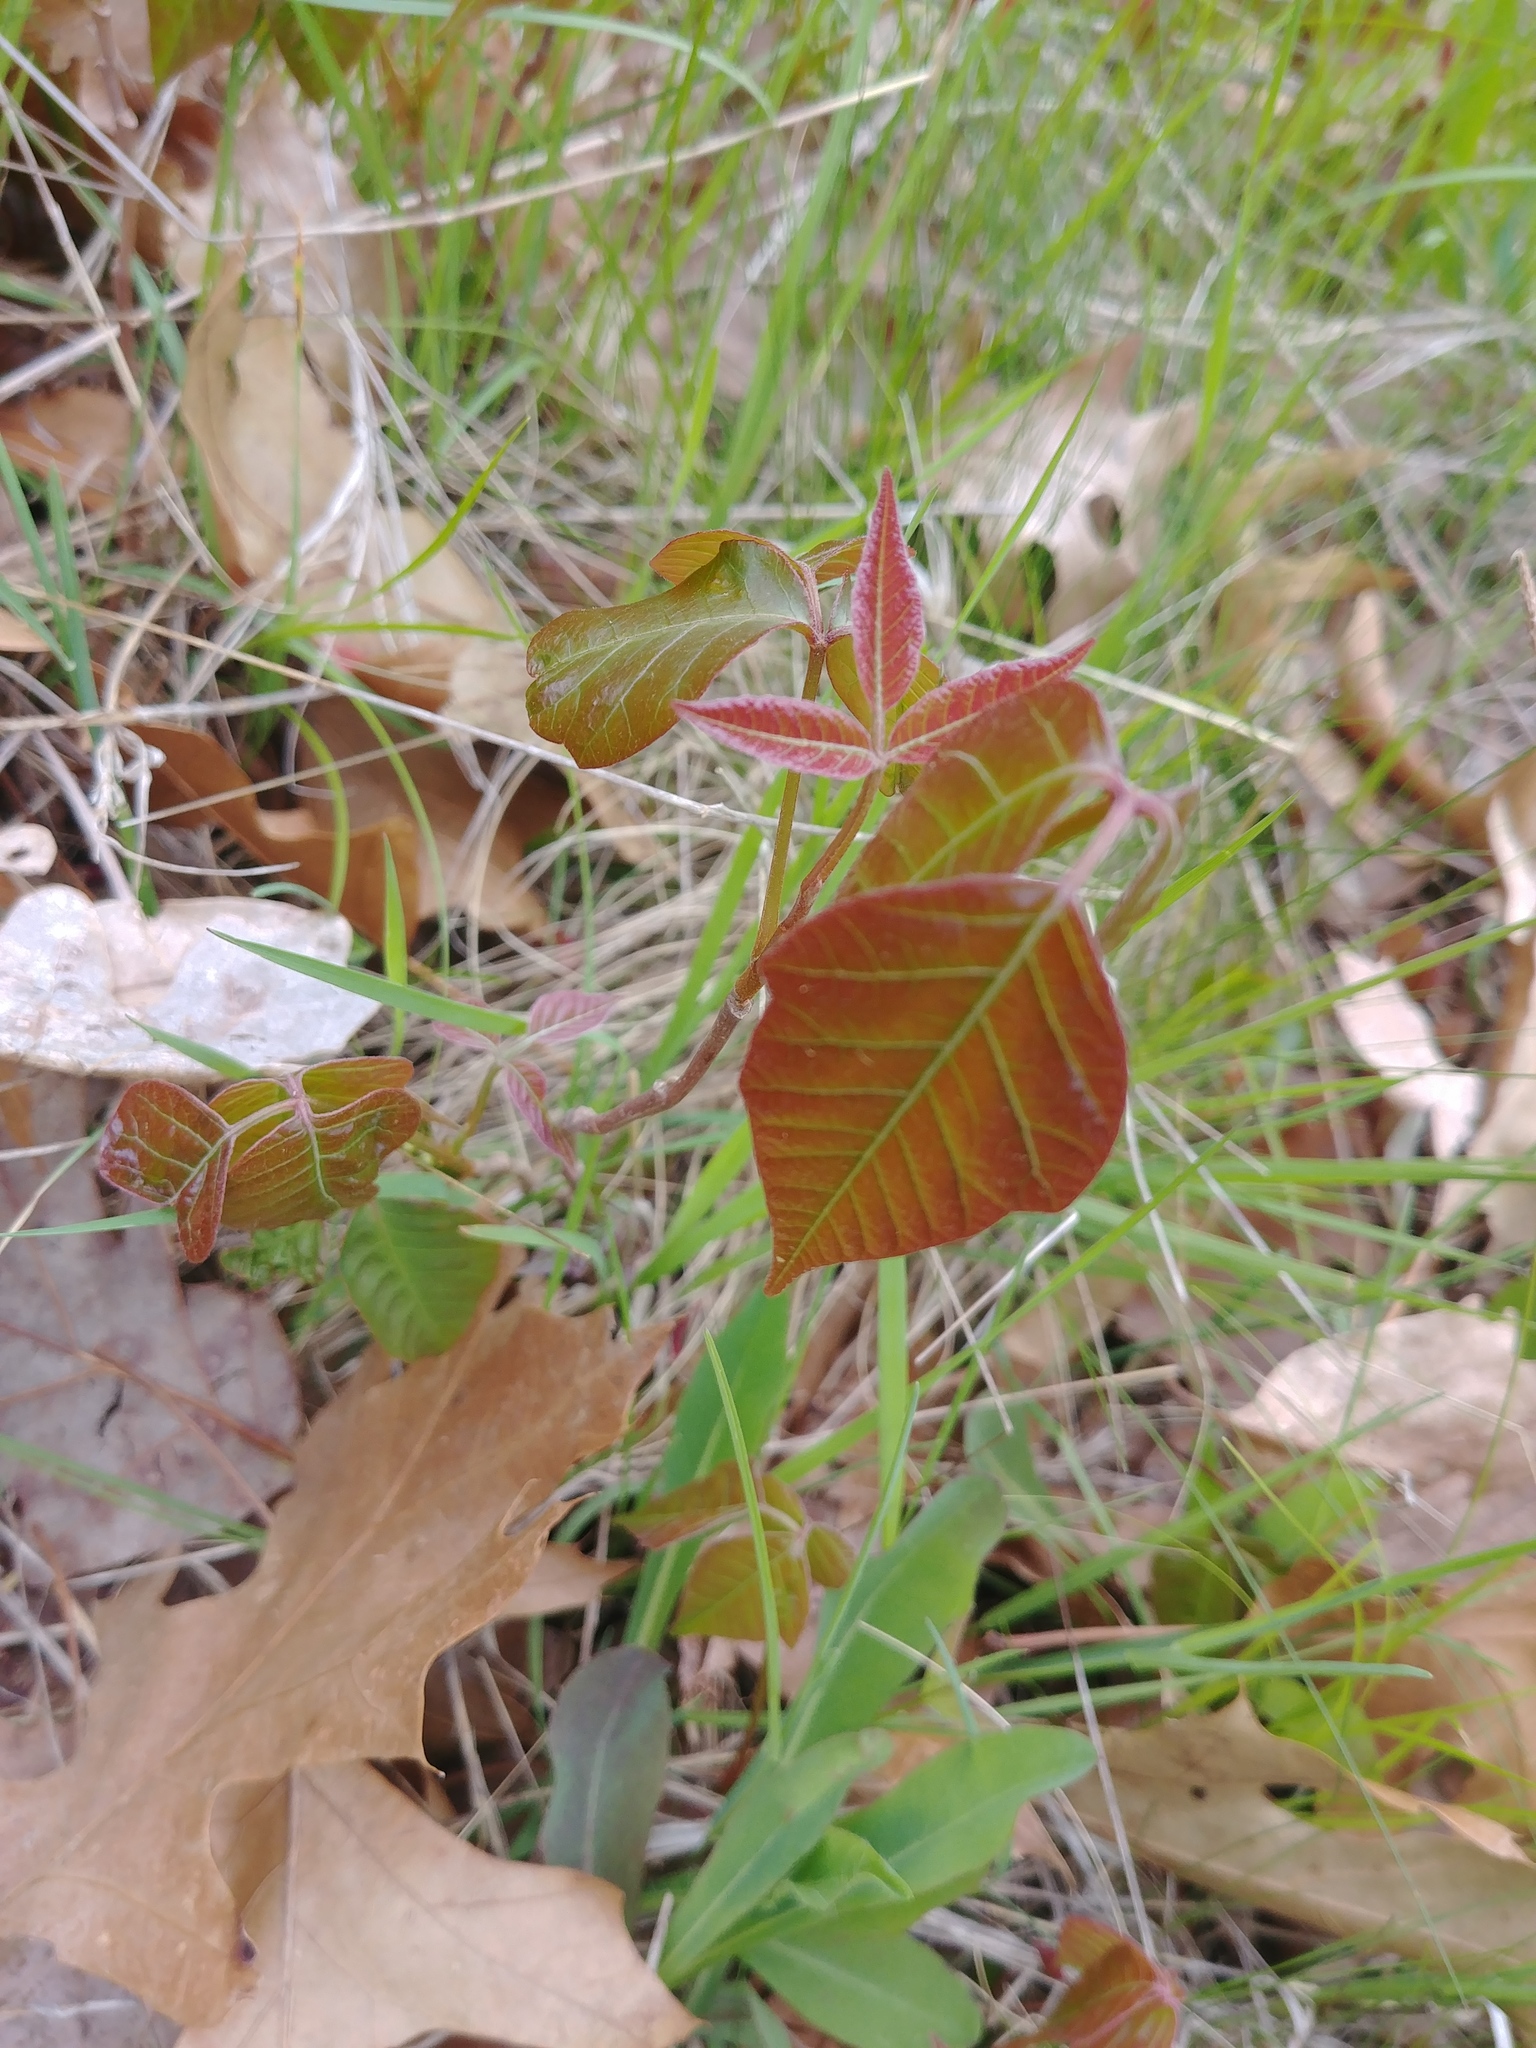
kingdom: Plantae
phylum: Tracheophyta
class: Magnoliopsida
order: Sapindales
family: Anacardiaceae
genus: Toxicodendron
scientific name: Toxicodendron radicans
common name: Poison ivy
